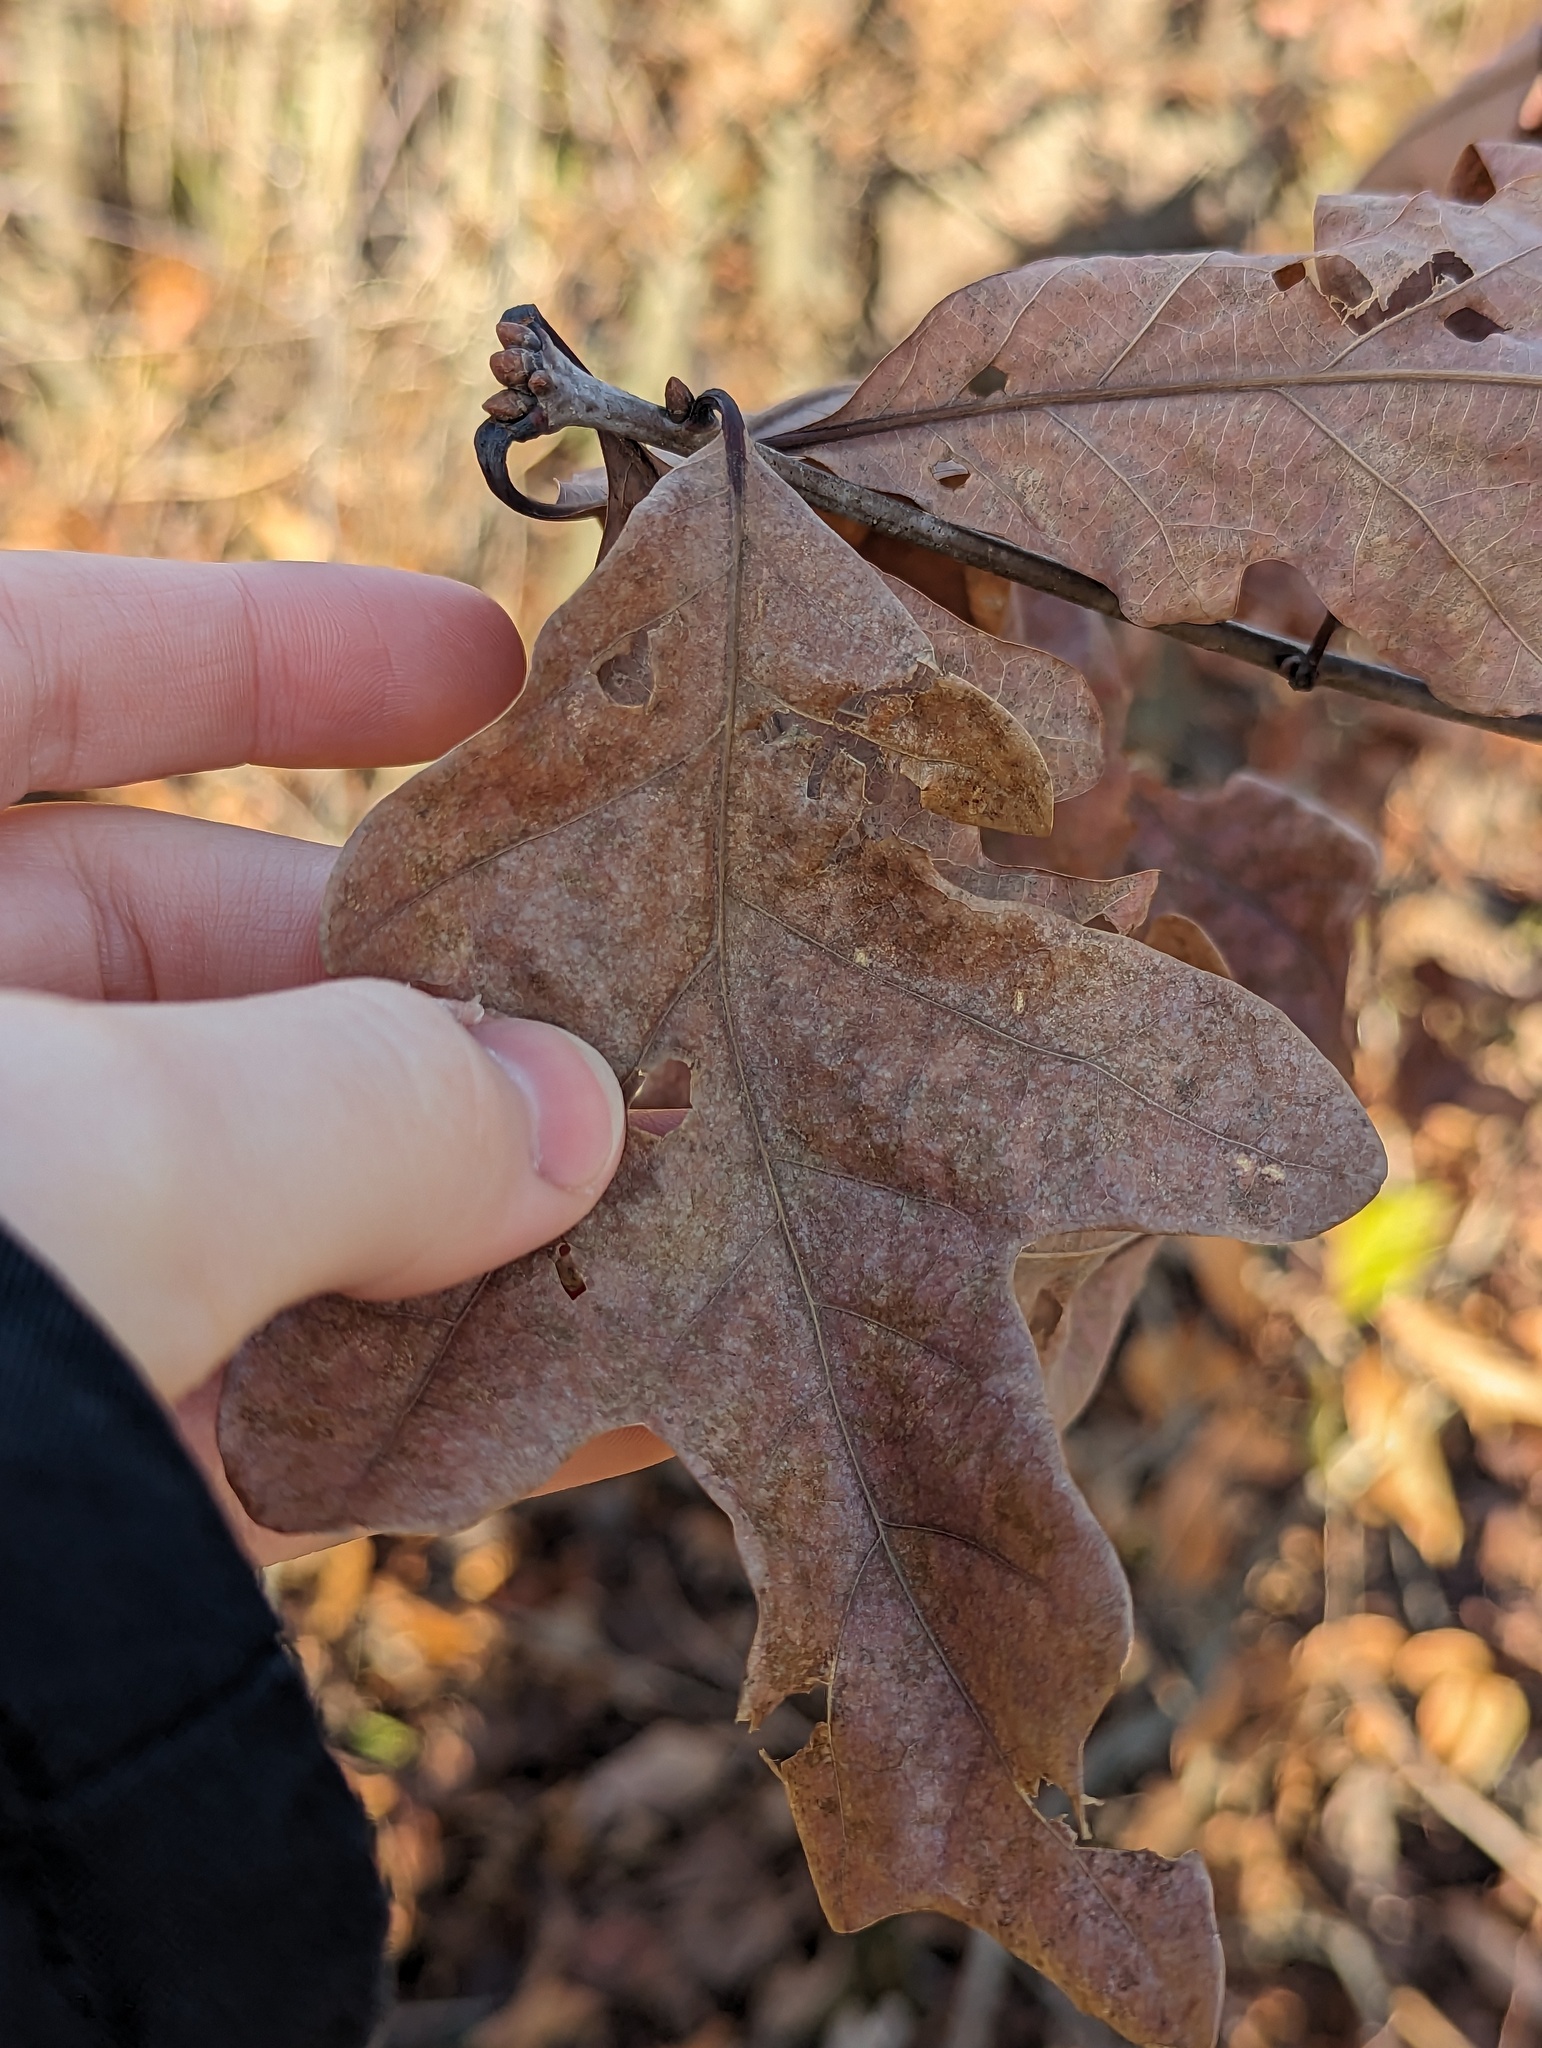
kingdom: Plantae
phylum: Tracheophyta
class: Magnoliopsida
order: Fagales
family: Fagaceae
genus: Quercus
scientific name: Quercus alba
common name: White oak
